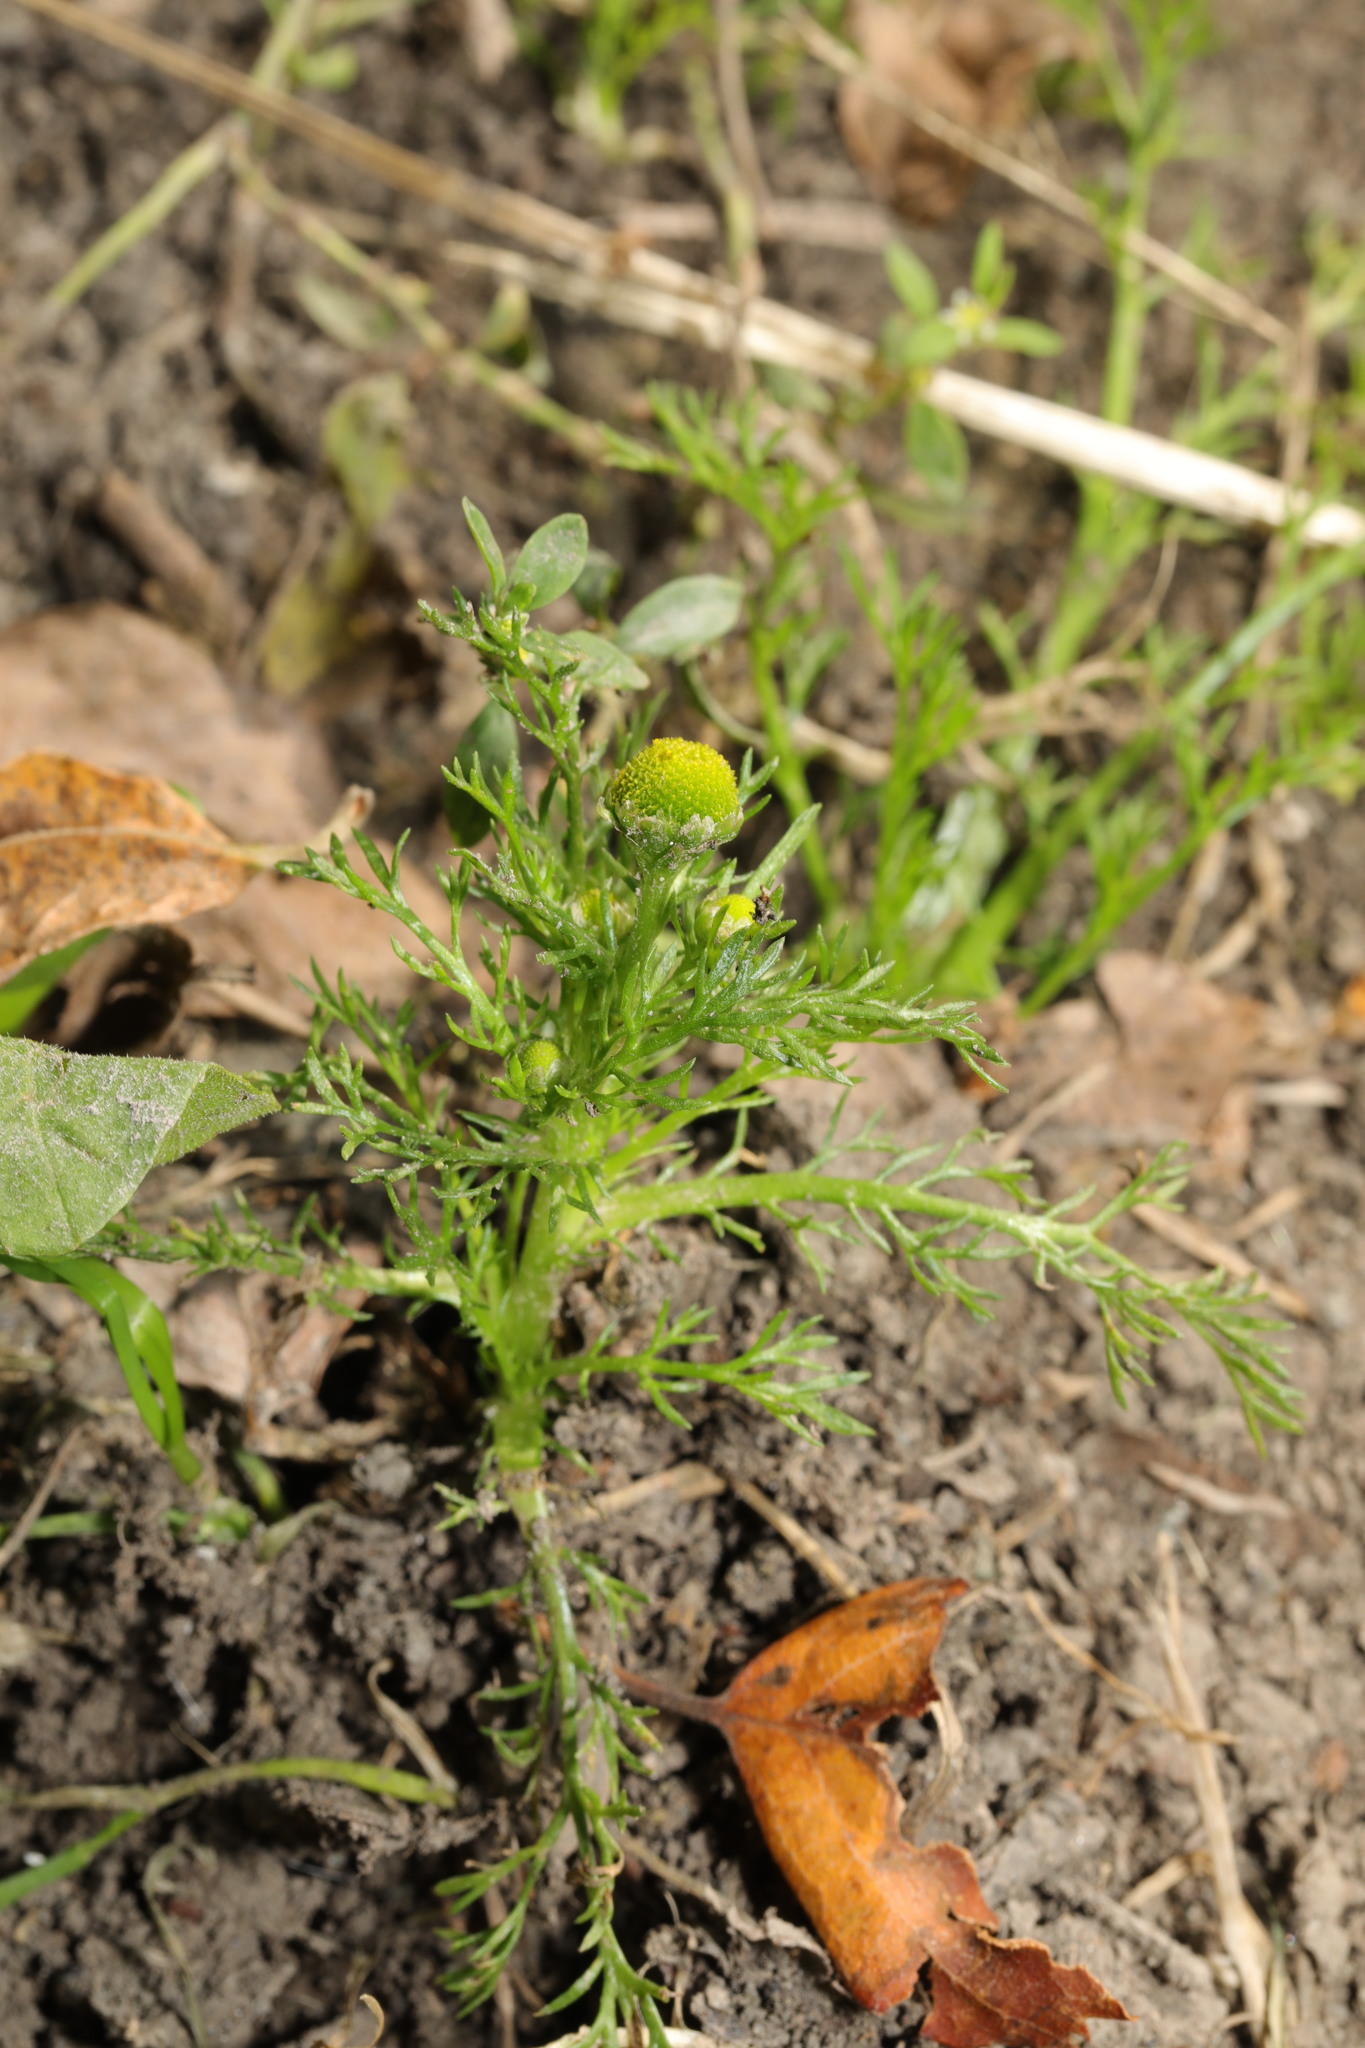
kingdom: Plantae
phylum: Tracheophyta
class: Magnoliopsida
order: Asterales
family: Asteraceae
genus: Matricaria
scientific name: Matricaria discoidea
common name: Disc mayweed
